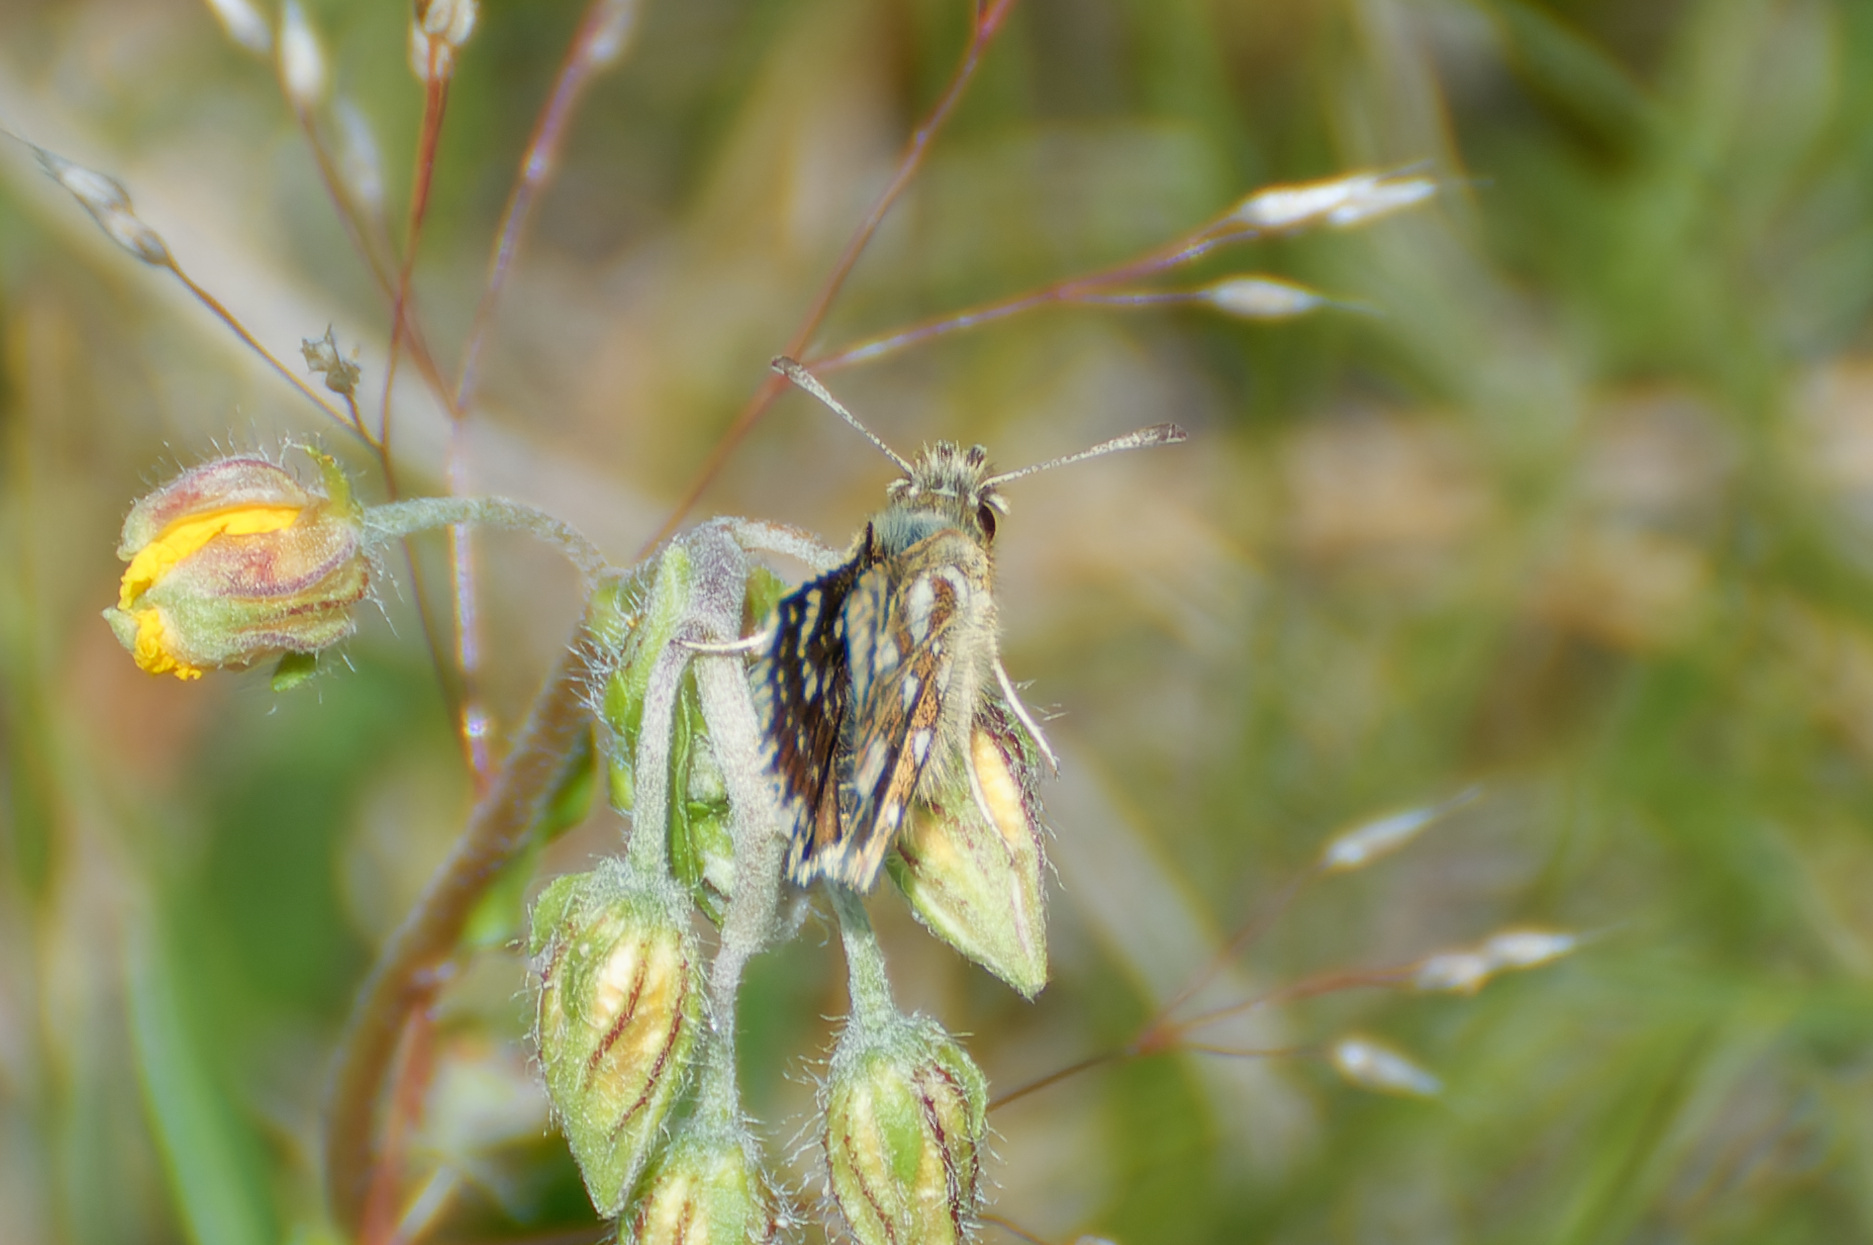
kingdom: Animalia
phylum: Arthropoda
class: Insecta
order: Lepidoptera
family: Hesperiidae
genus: Spialia
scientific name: Spialia sertorius
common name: Red underwing skipper
